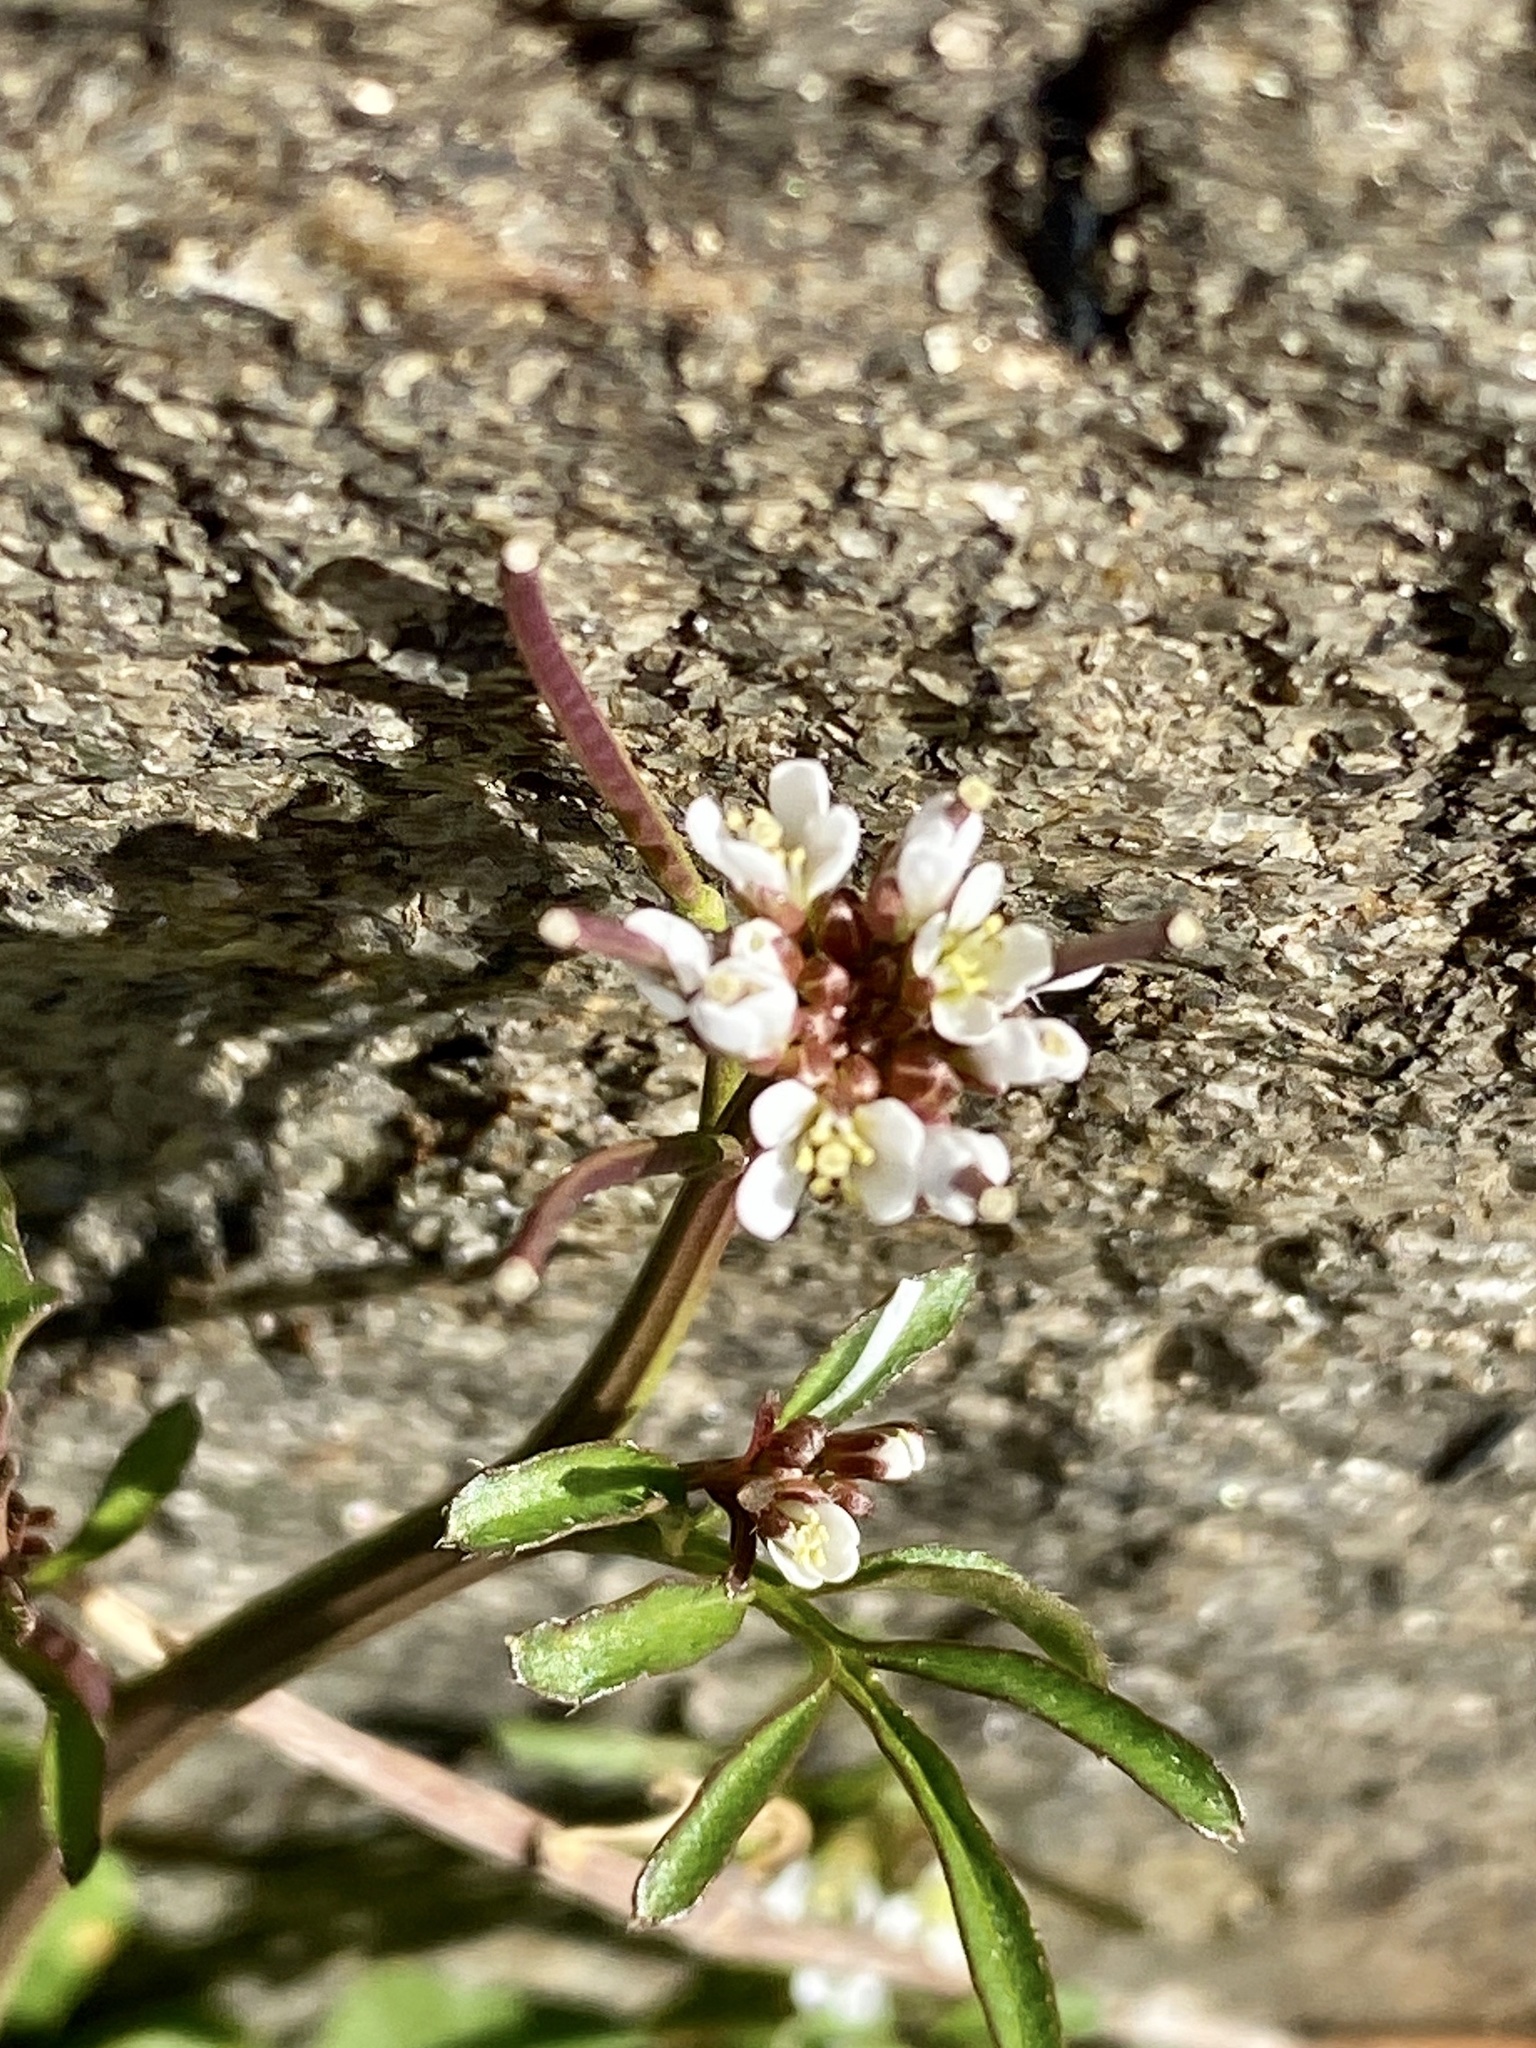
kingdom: Plantae
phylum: Tracheophyta
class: Magnoliopsida
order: Brassicales
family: Brassicaceae
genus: Cardamine
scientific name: Cardamine hirsuta
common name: Hairy bittercress
